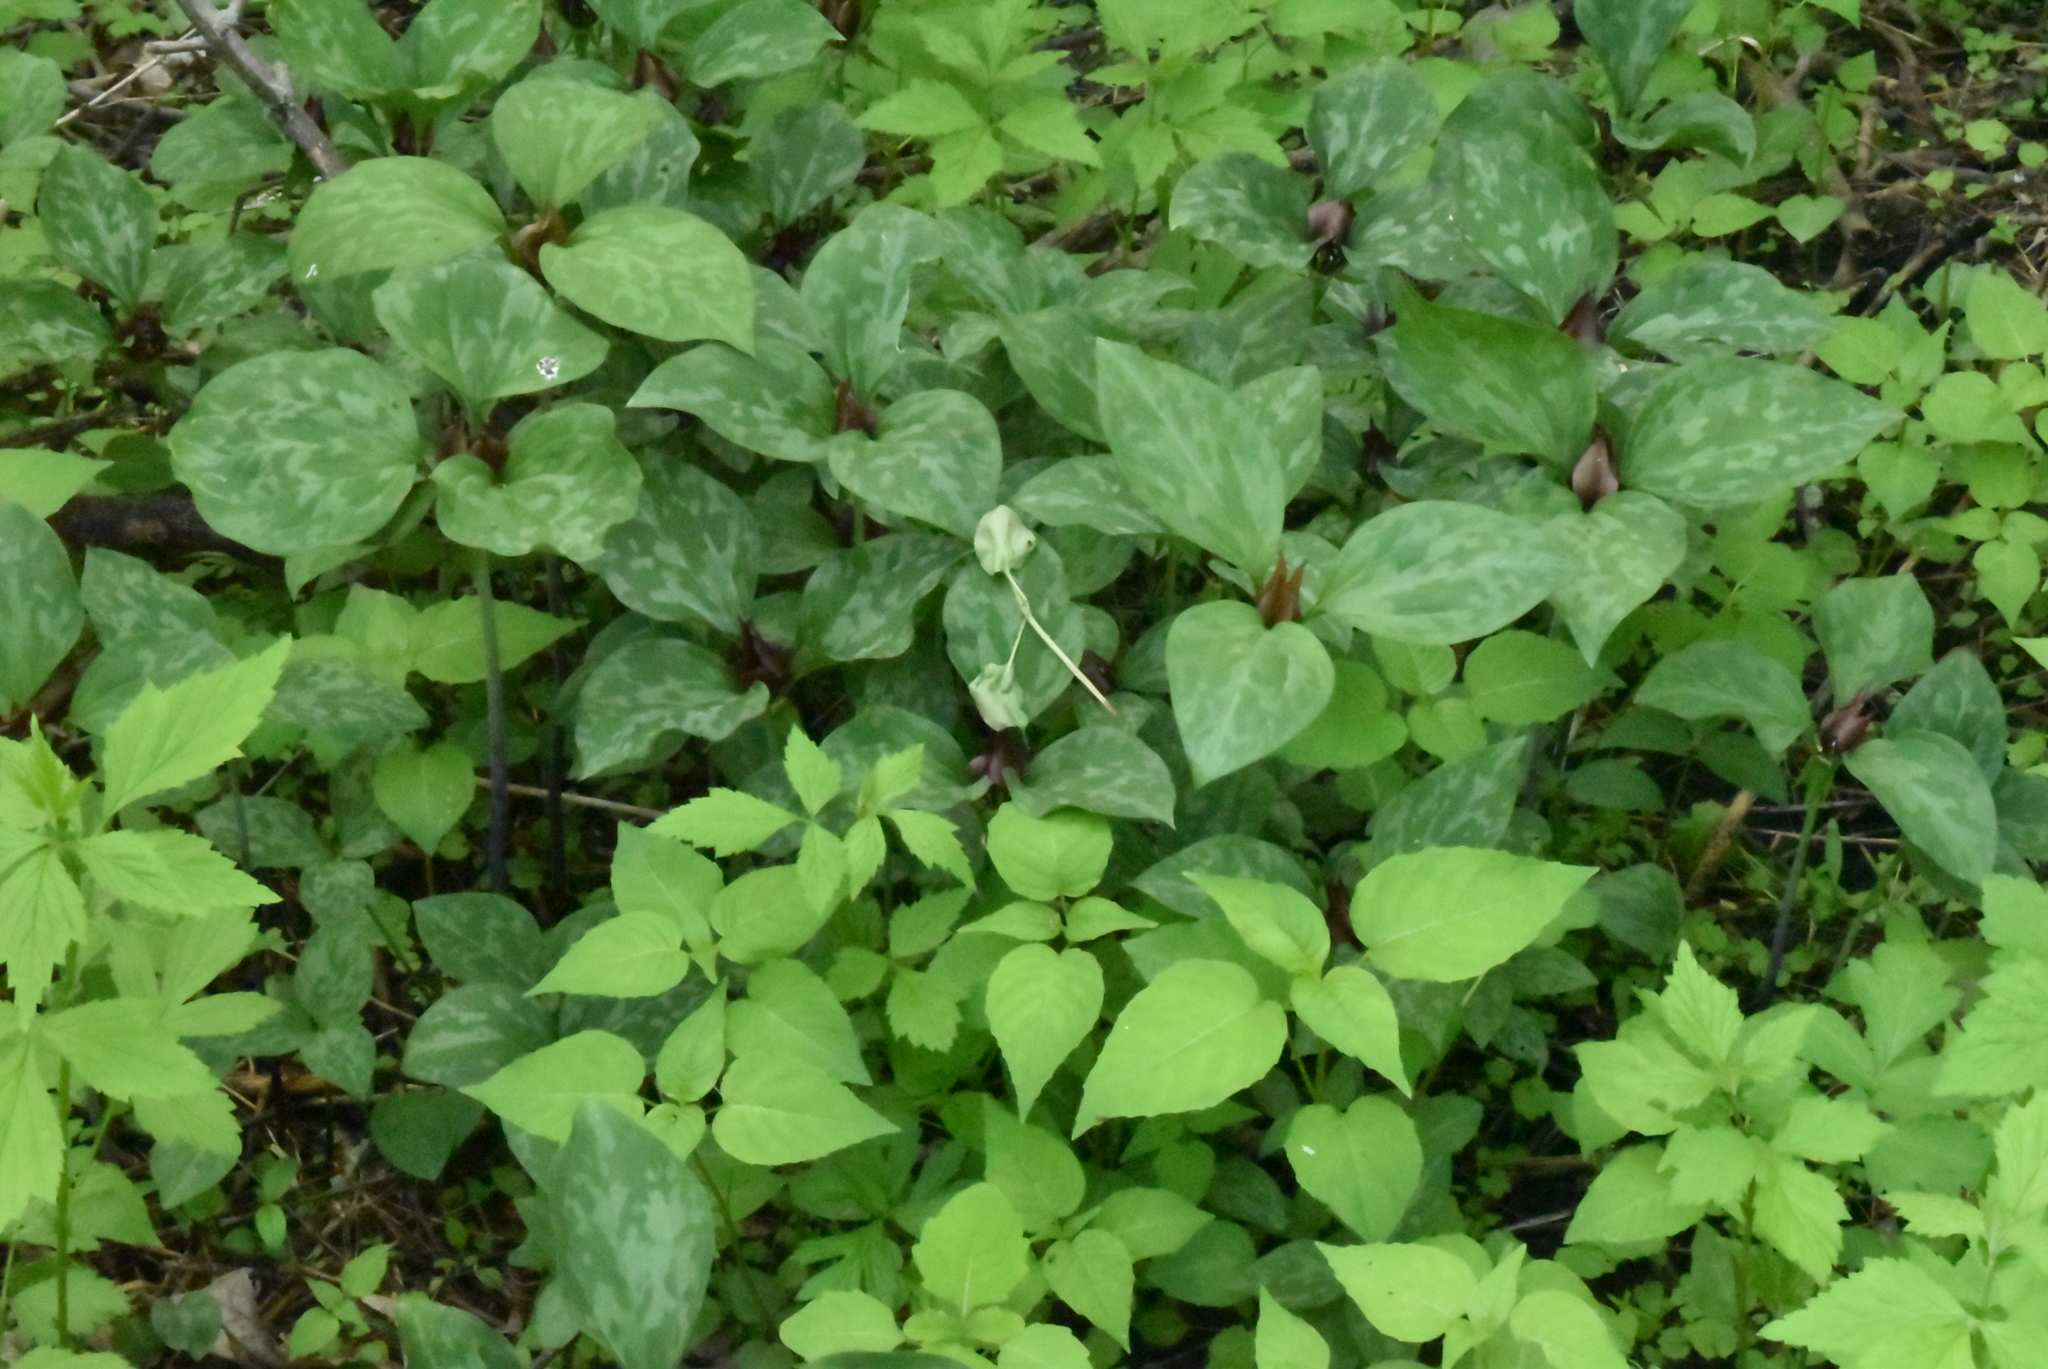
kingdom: Plantae
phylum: Tracheophyta
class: Liliopsida
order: Liliales
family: Melanthiaceae
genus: Trillium
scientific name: Trillium recurvatum
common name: Bloody butcher
